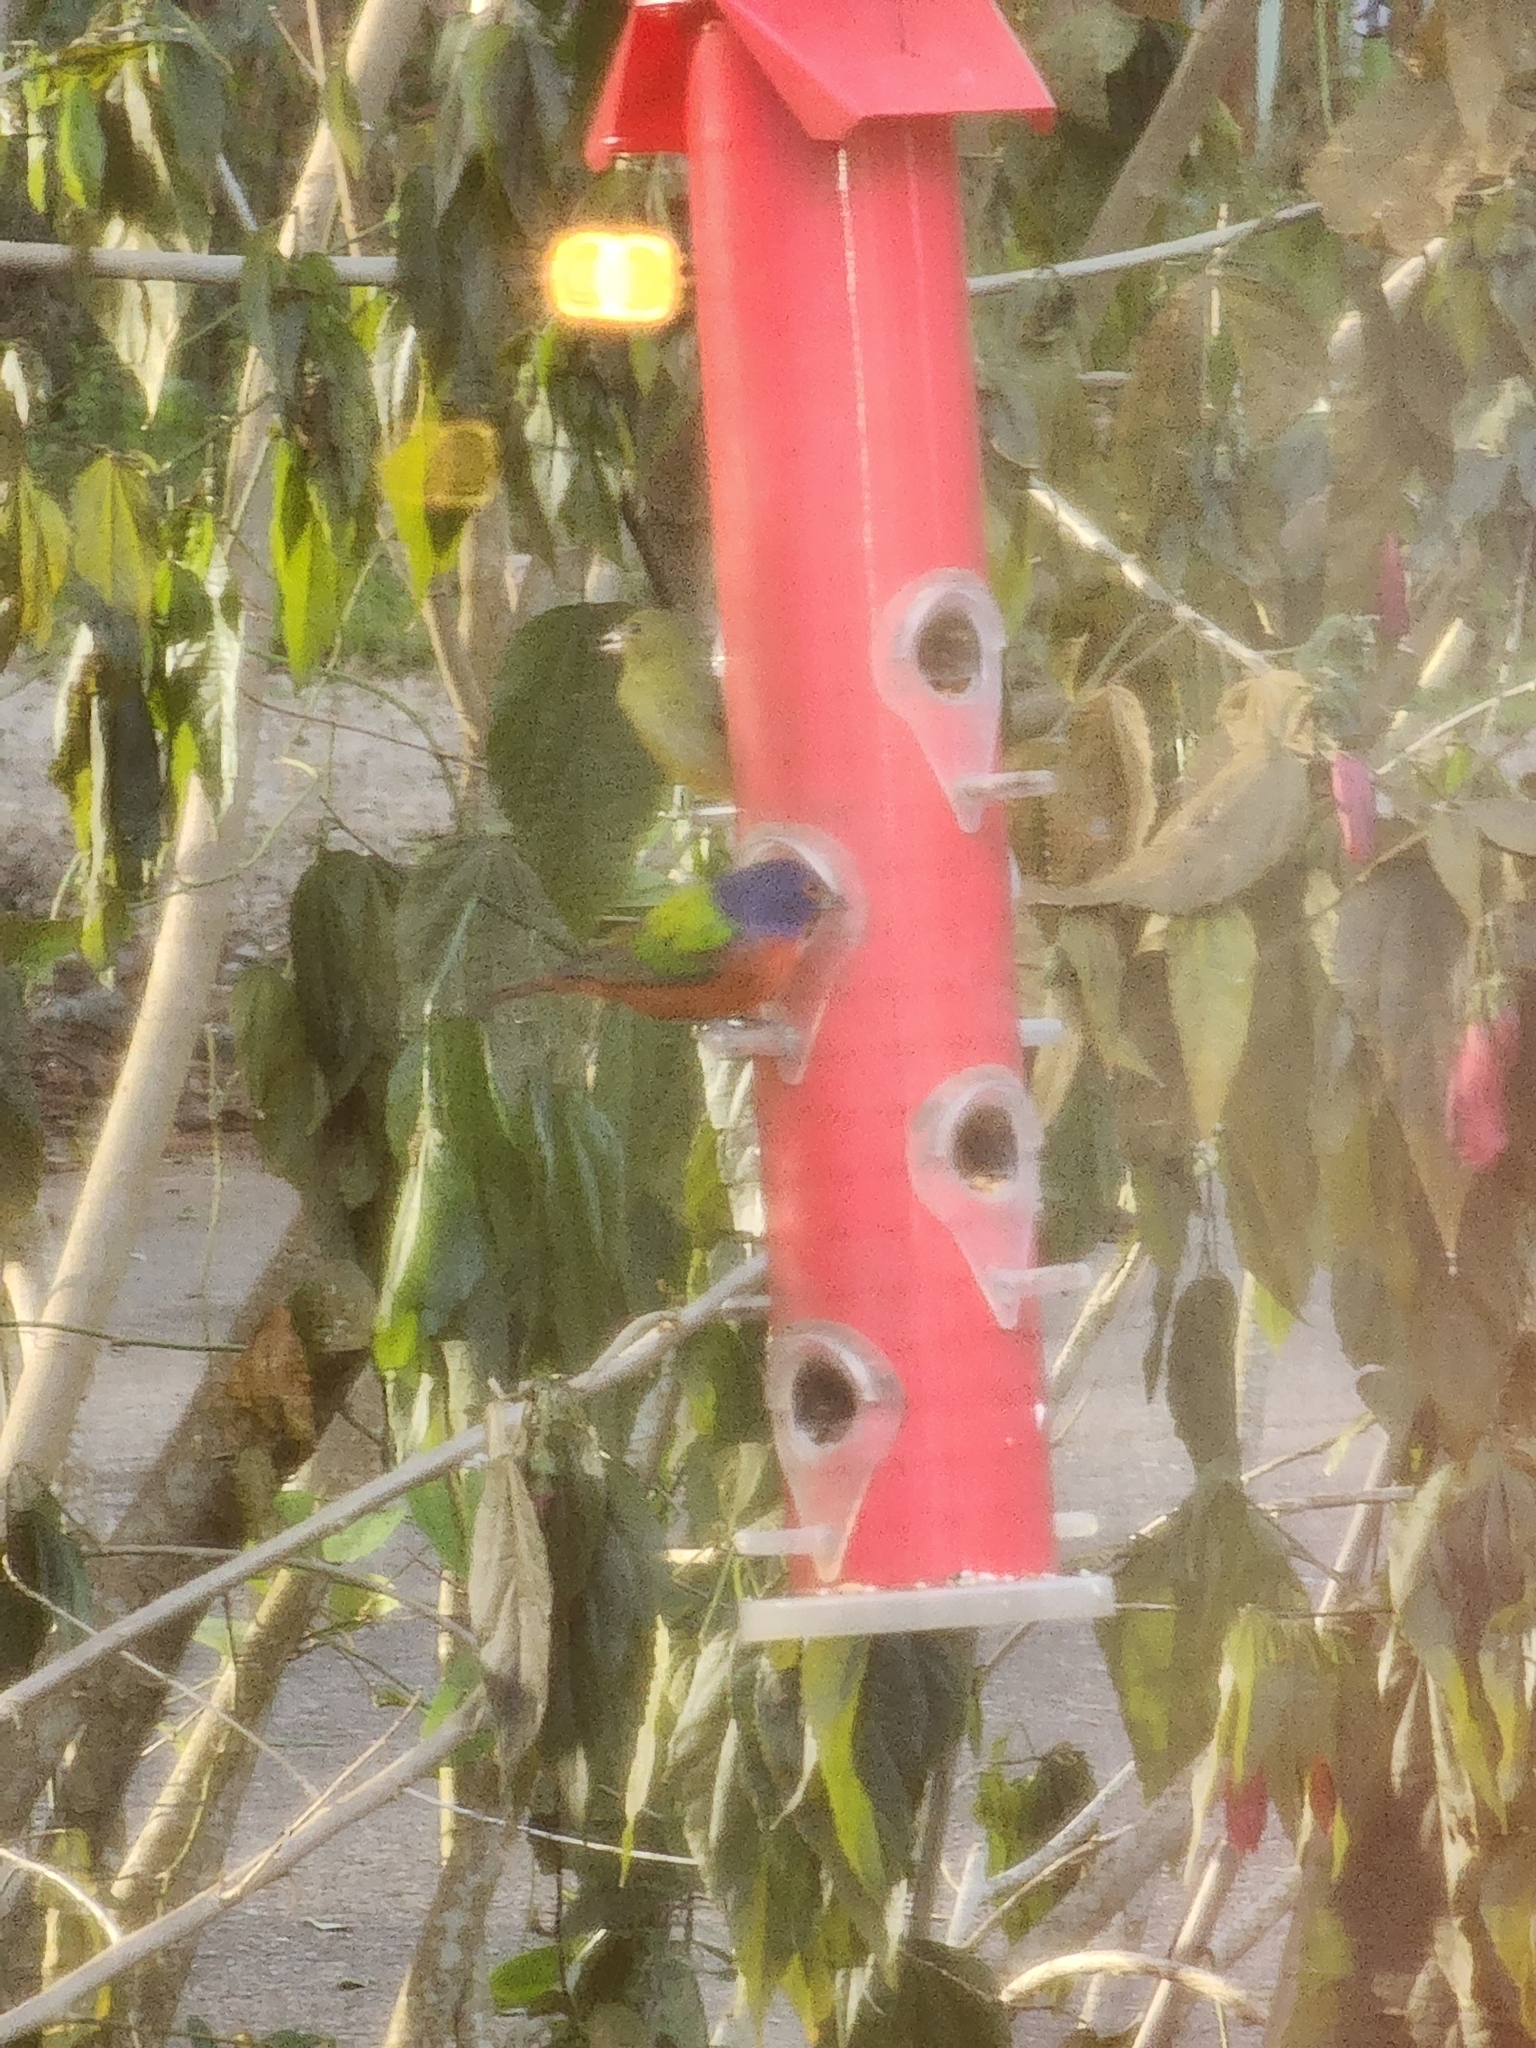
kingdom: Animalia
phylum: Chordata
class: Aves
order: Passeriformes
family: Cardinalidae
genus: Passerina
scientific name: Passerina ciris
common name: Painted bunting
